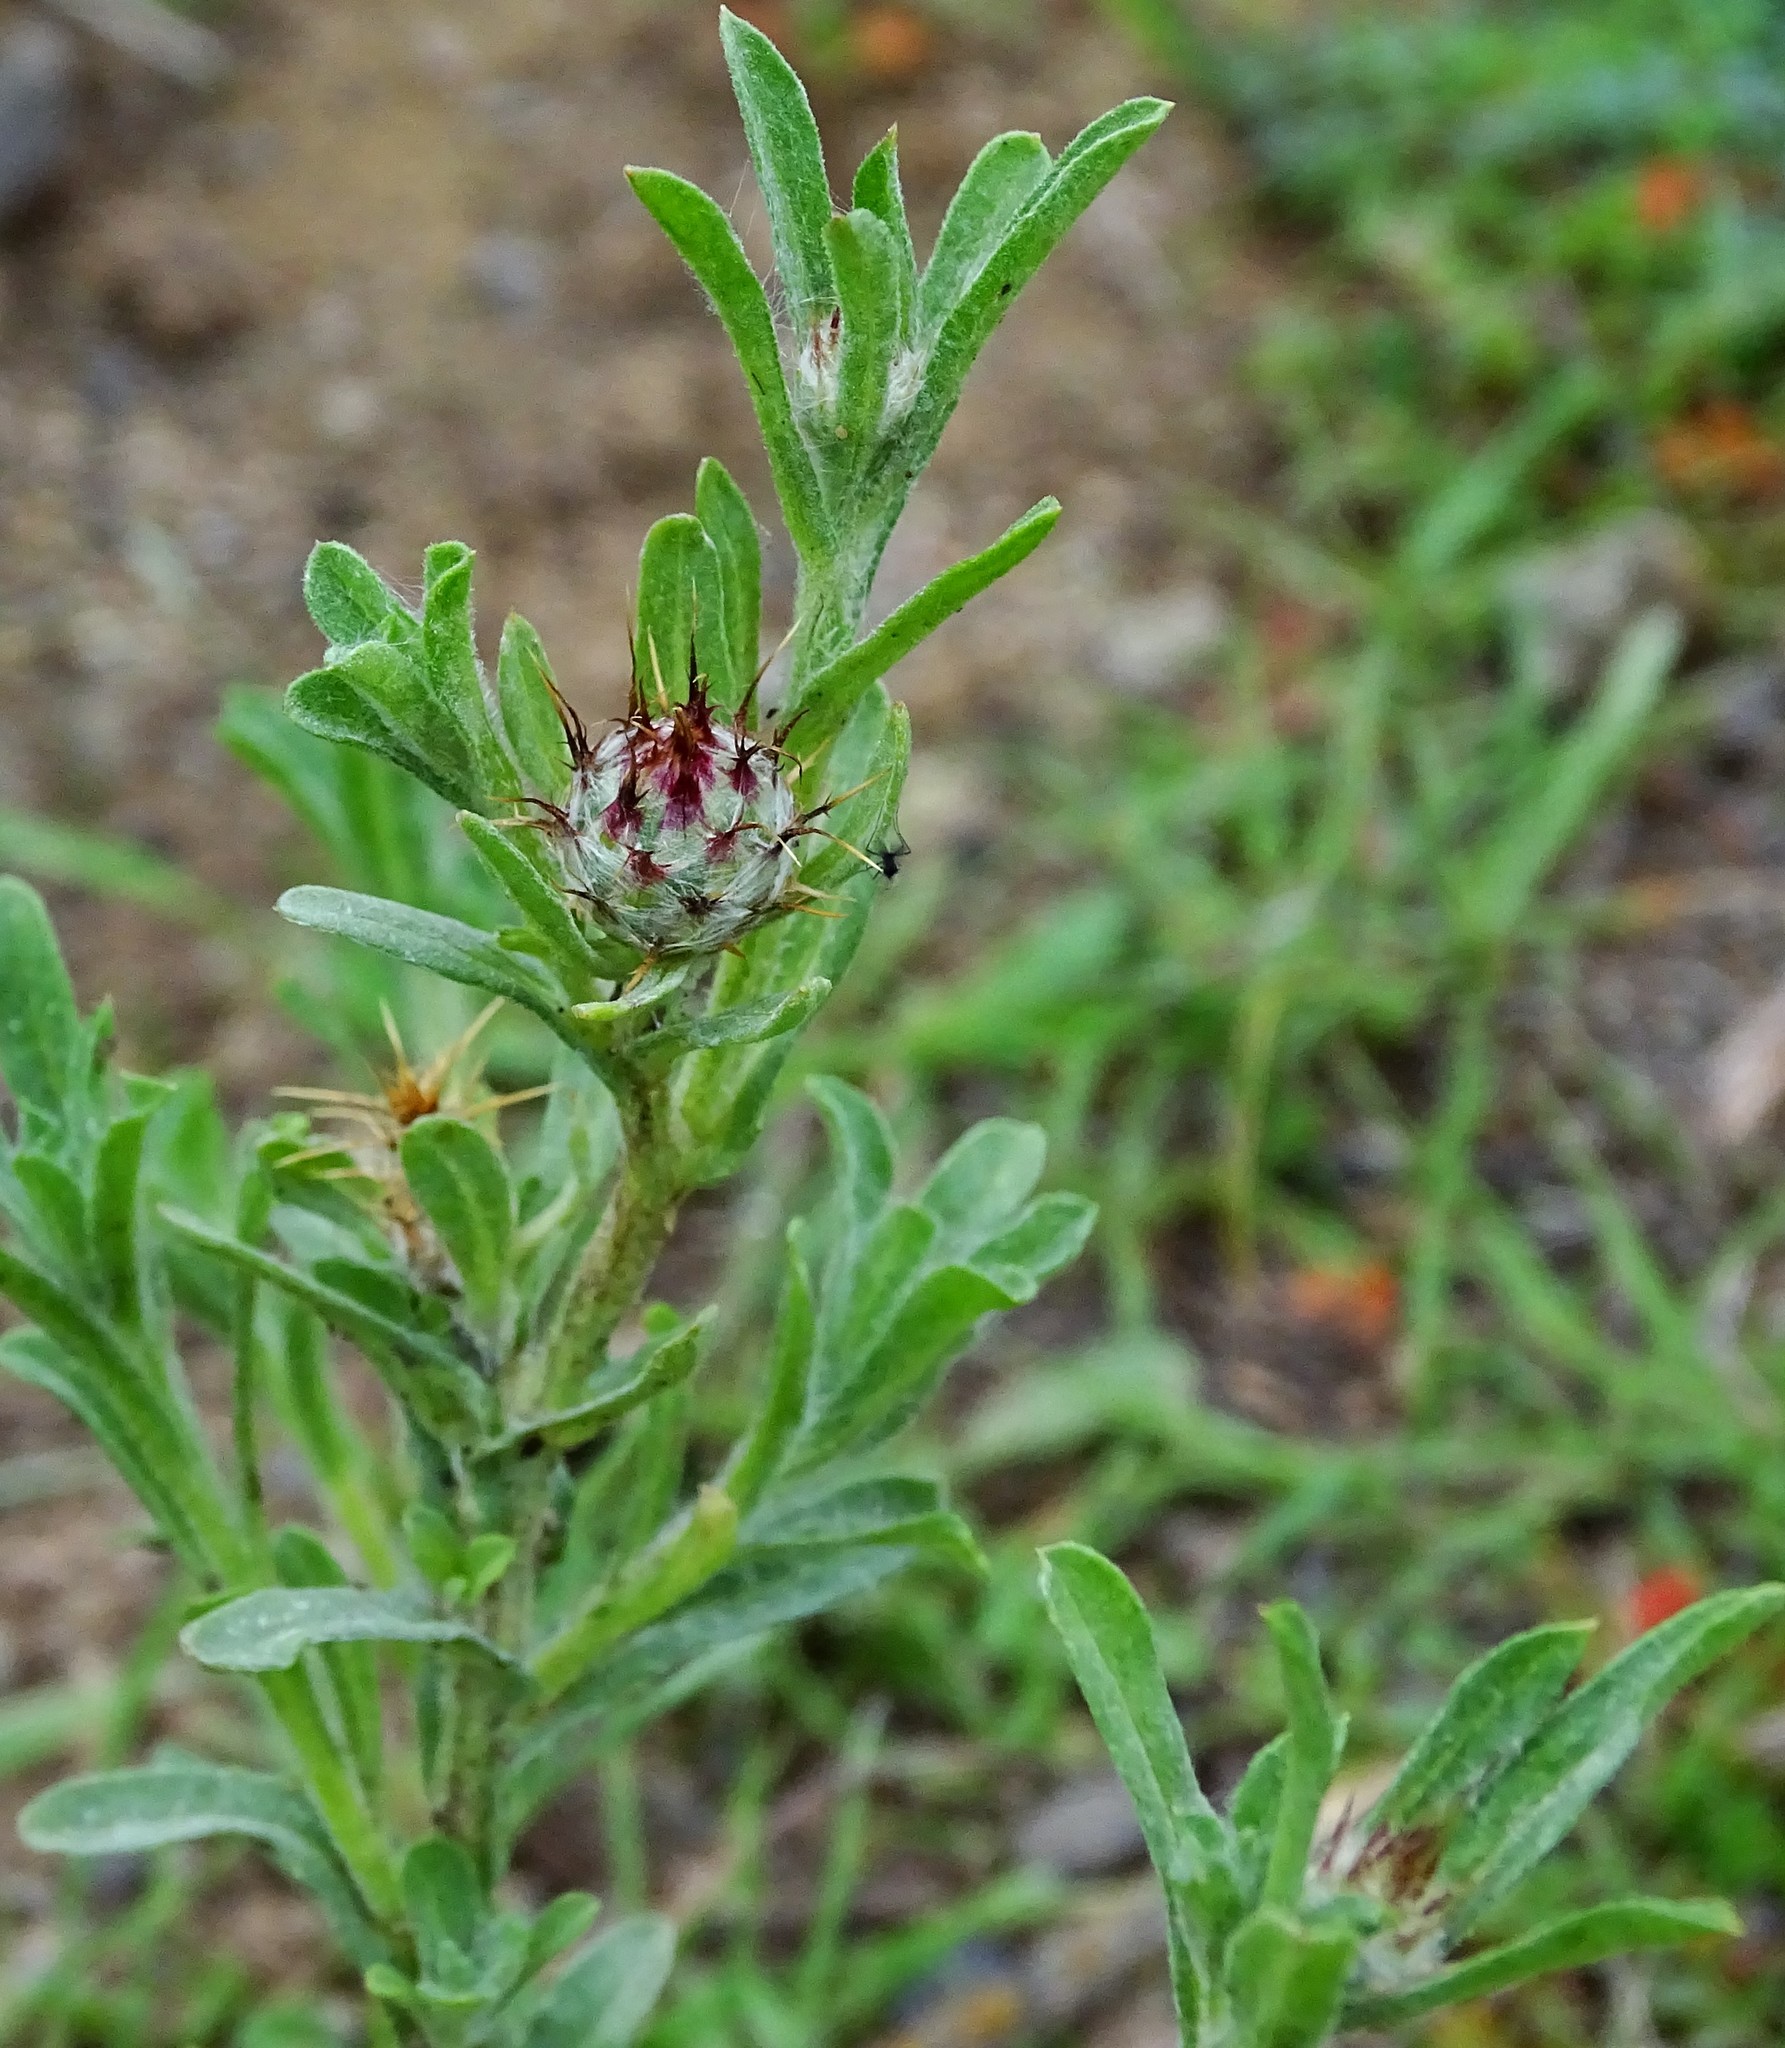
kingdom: Plantae
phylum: Tracheophyta
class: Magnoliopsida
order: Asterales
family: Asteraceae
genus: Centaurea
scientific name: Centaurea melitensis
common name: Maltese star-thistle
